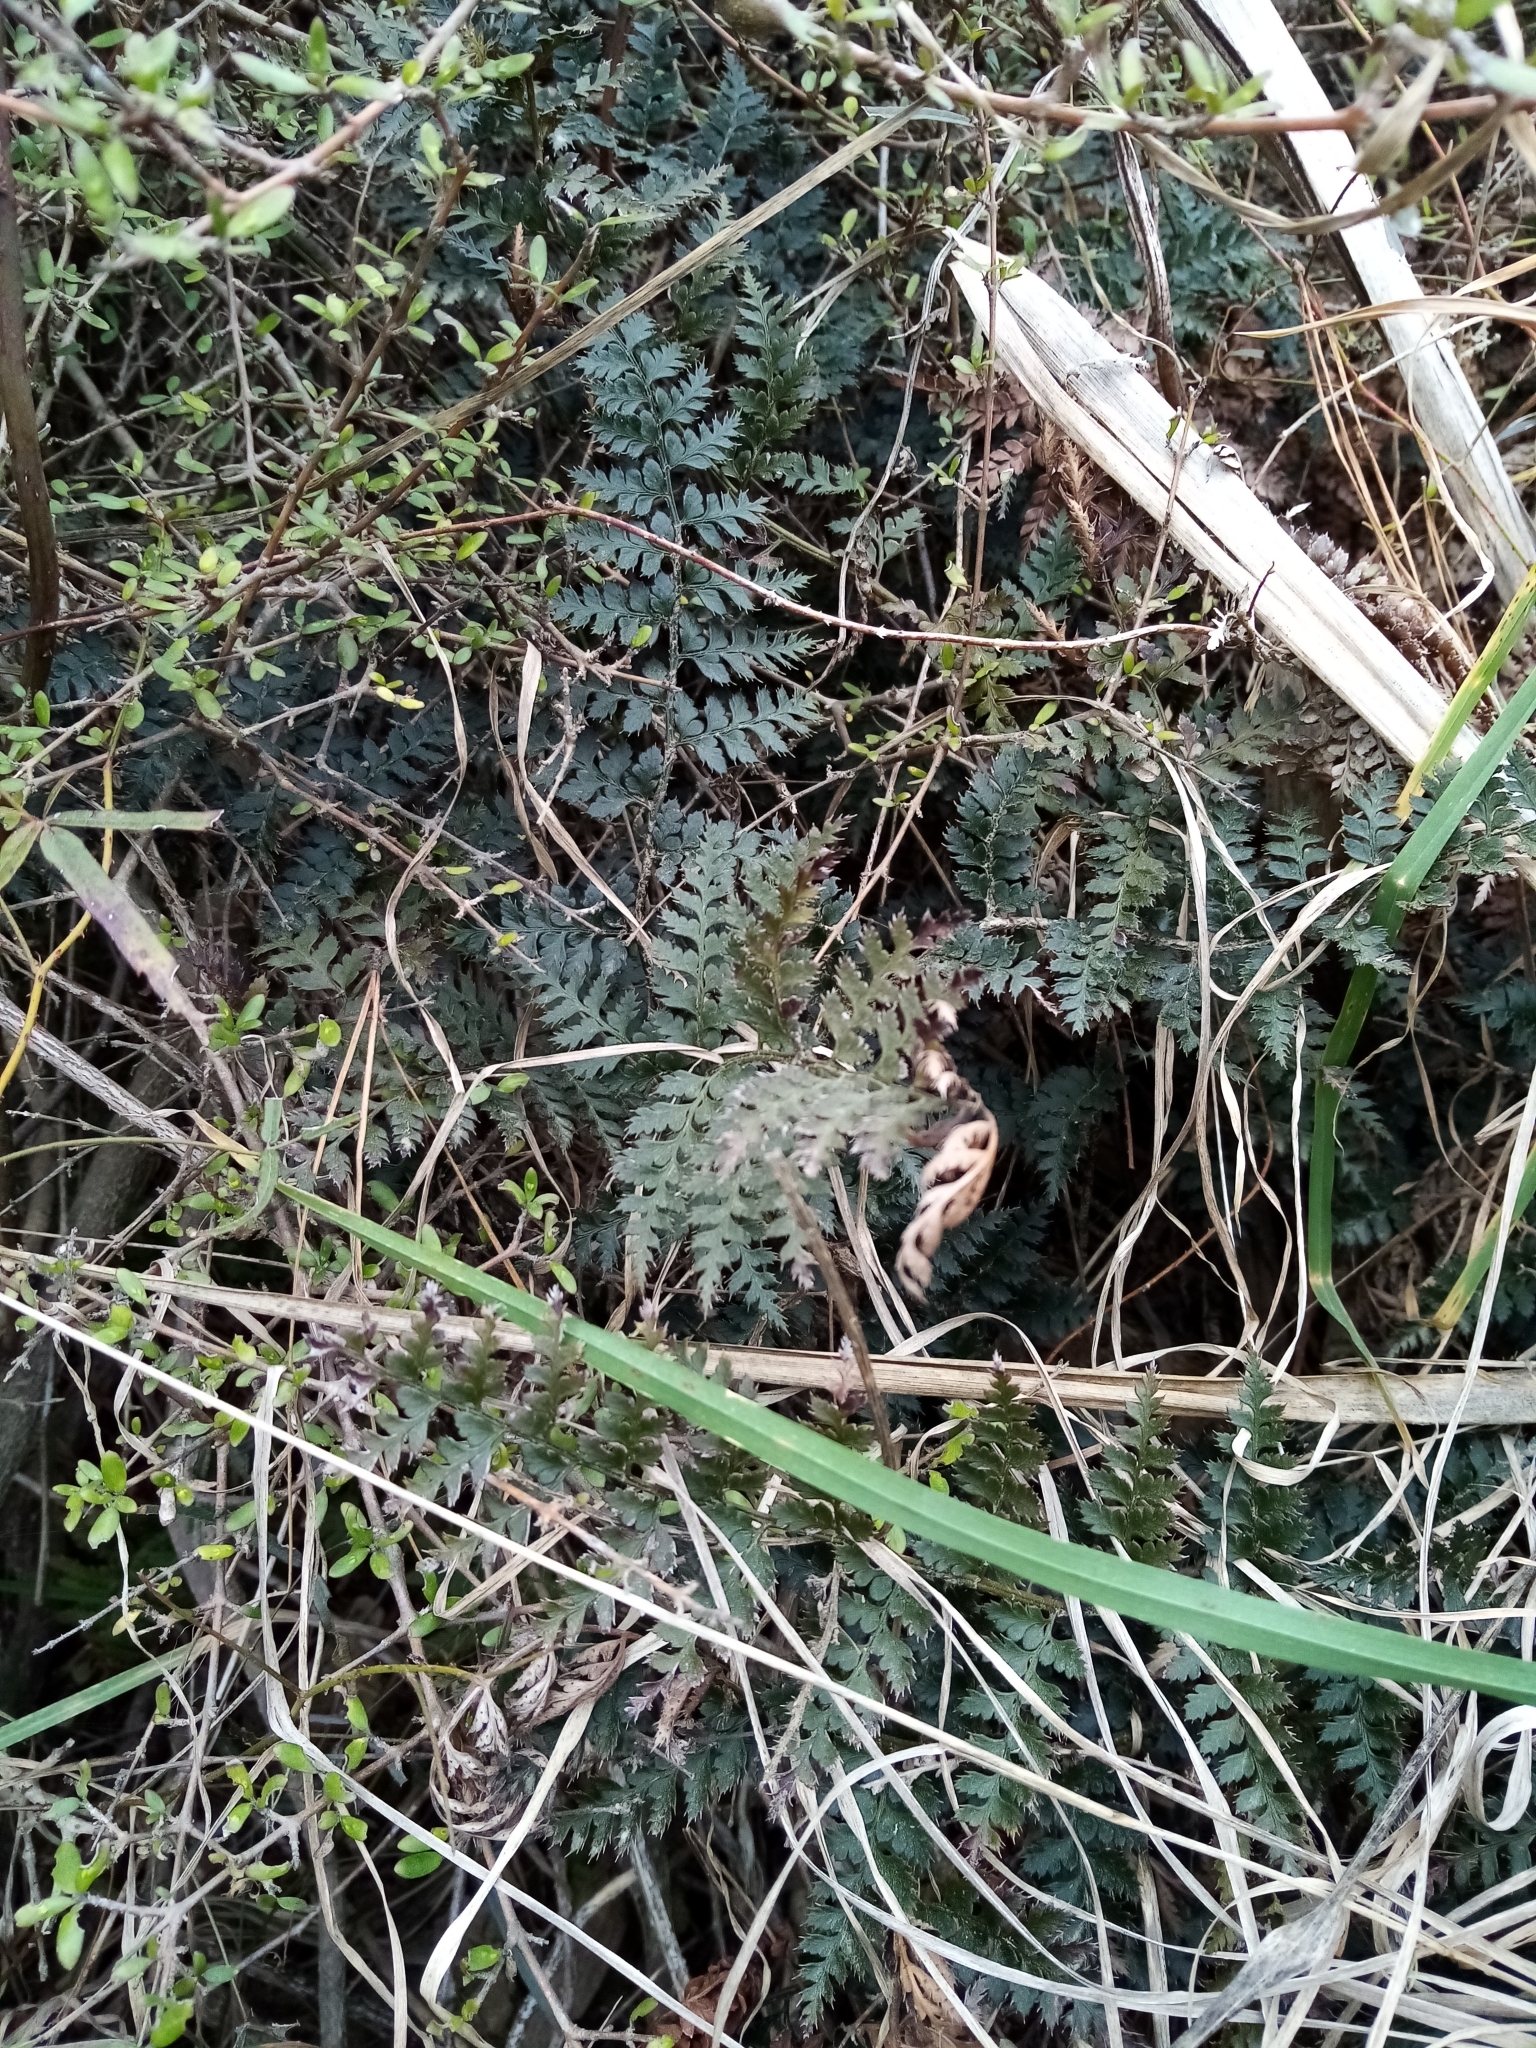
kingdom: Plantae
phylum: Tracheophyta
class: Polypodiopsida
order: Polypodiales
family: Dryopteridaceae
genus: Polystichum
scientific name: Polystichum oculatum
